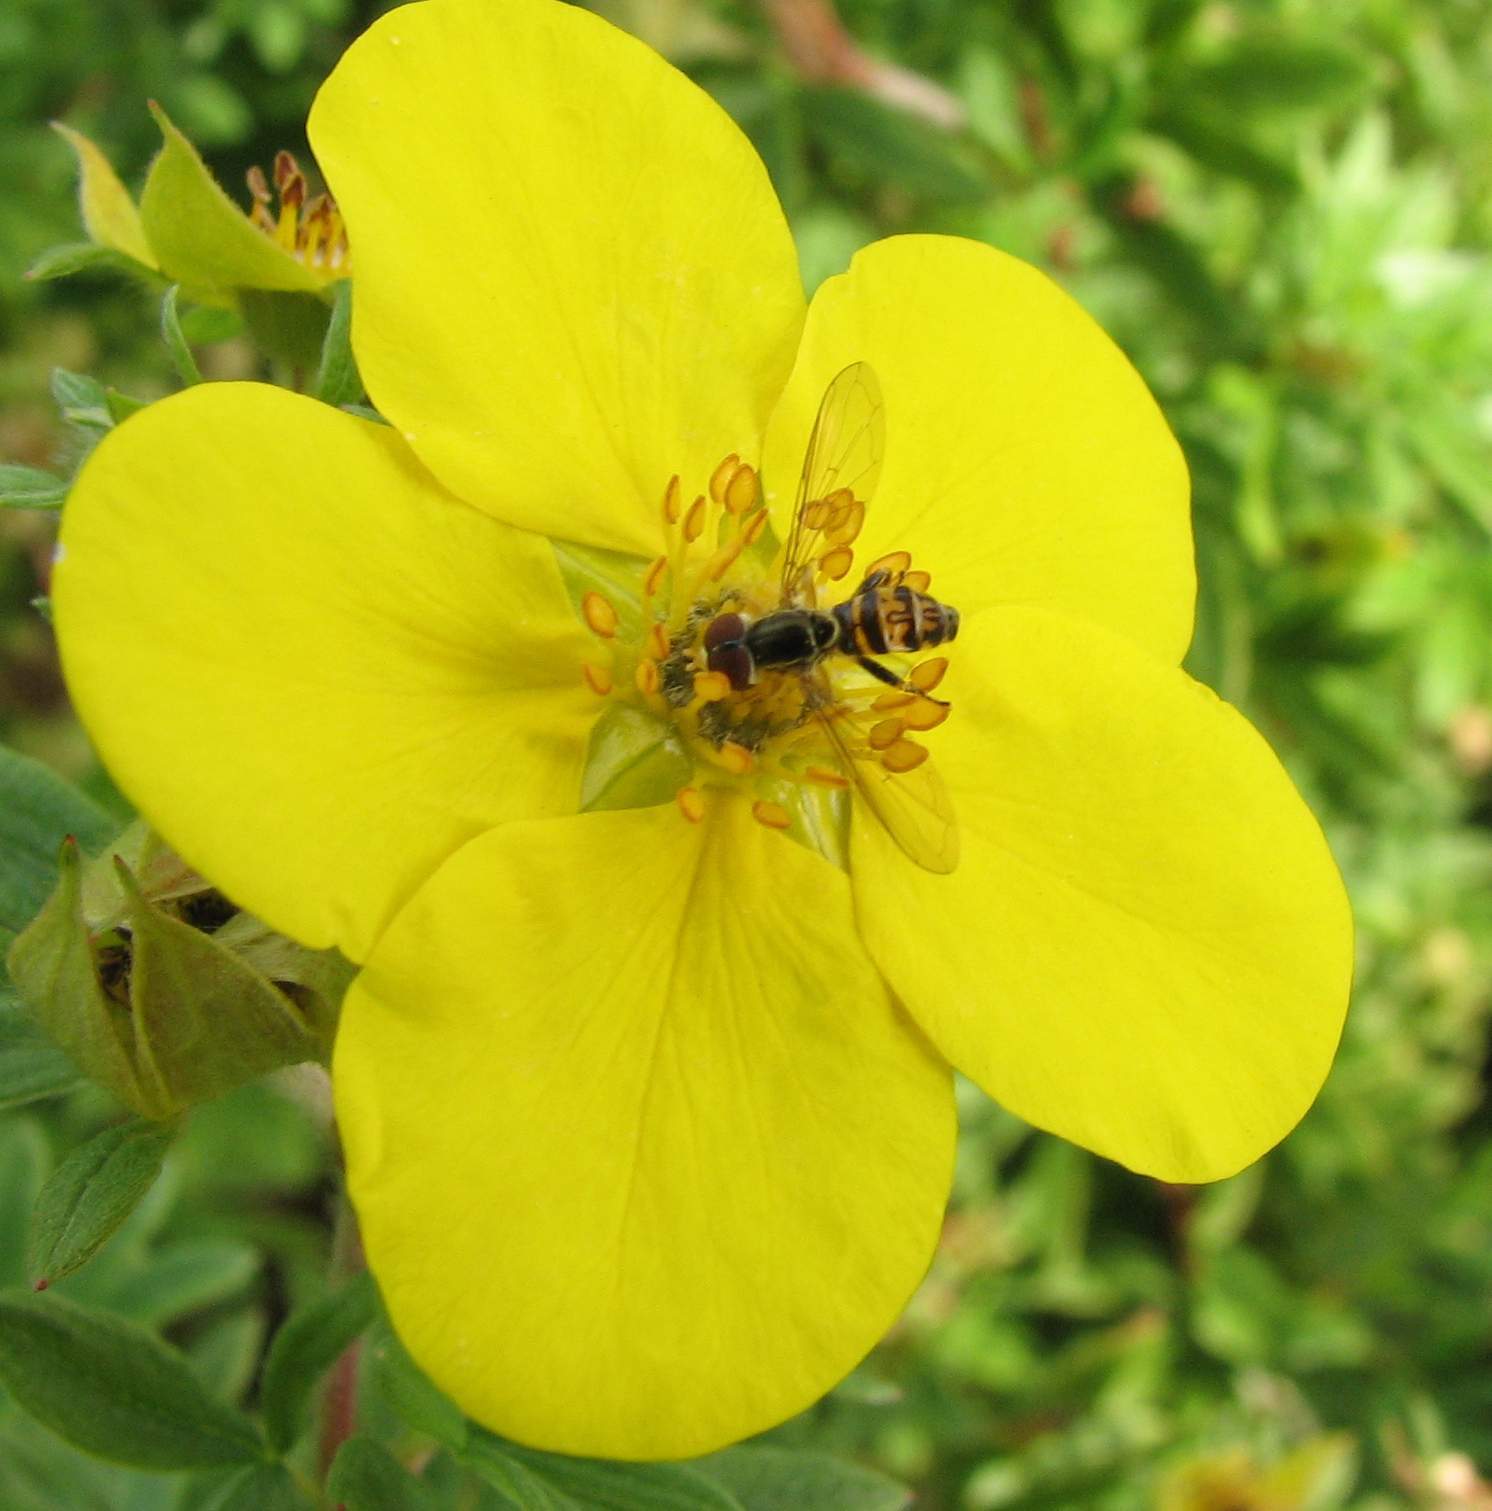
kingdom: Animalia
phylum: Arthropoda
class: Insecta
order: Diptera
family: Syrphidae
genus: Toxomerus
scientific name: Toxomerus geminatus
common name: Eastern calligrapher
